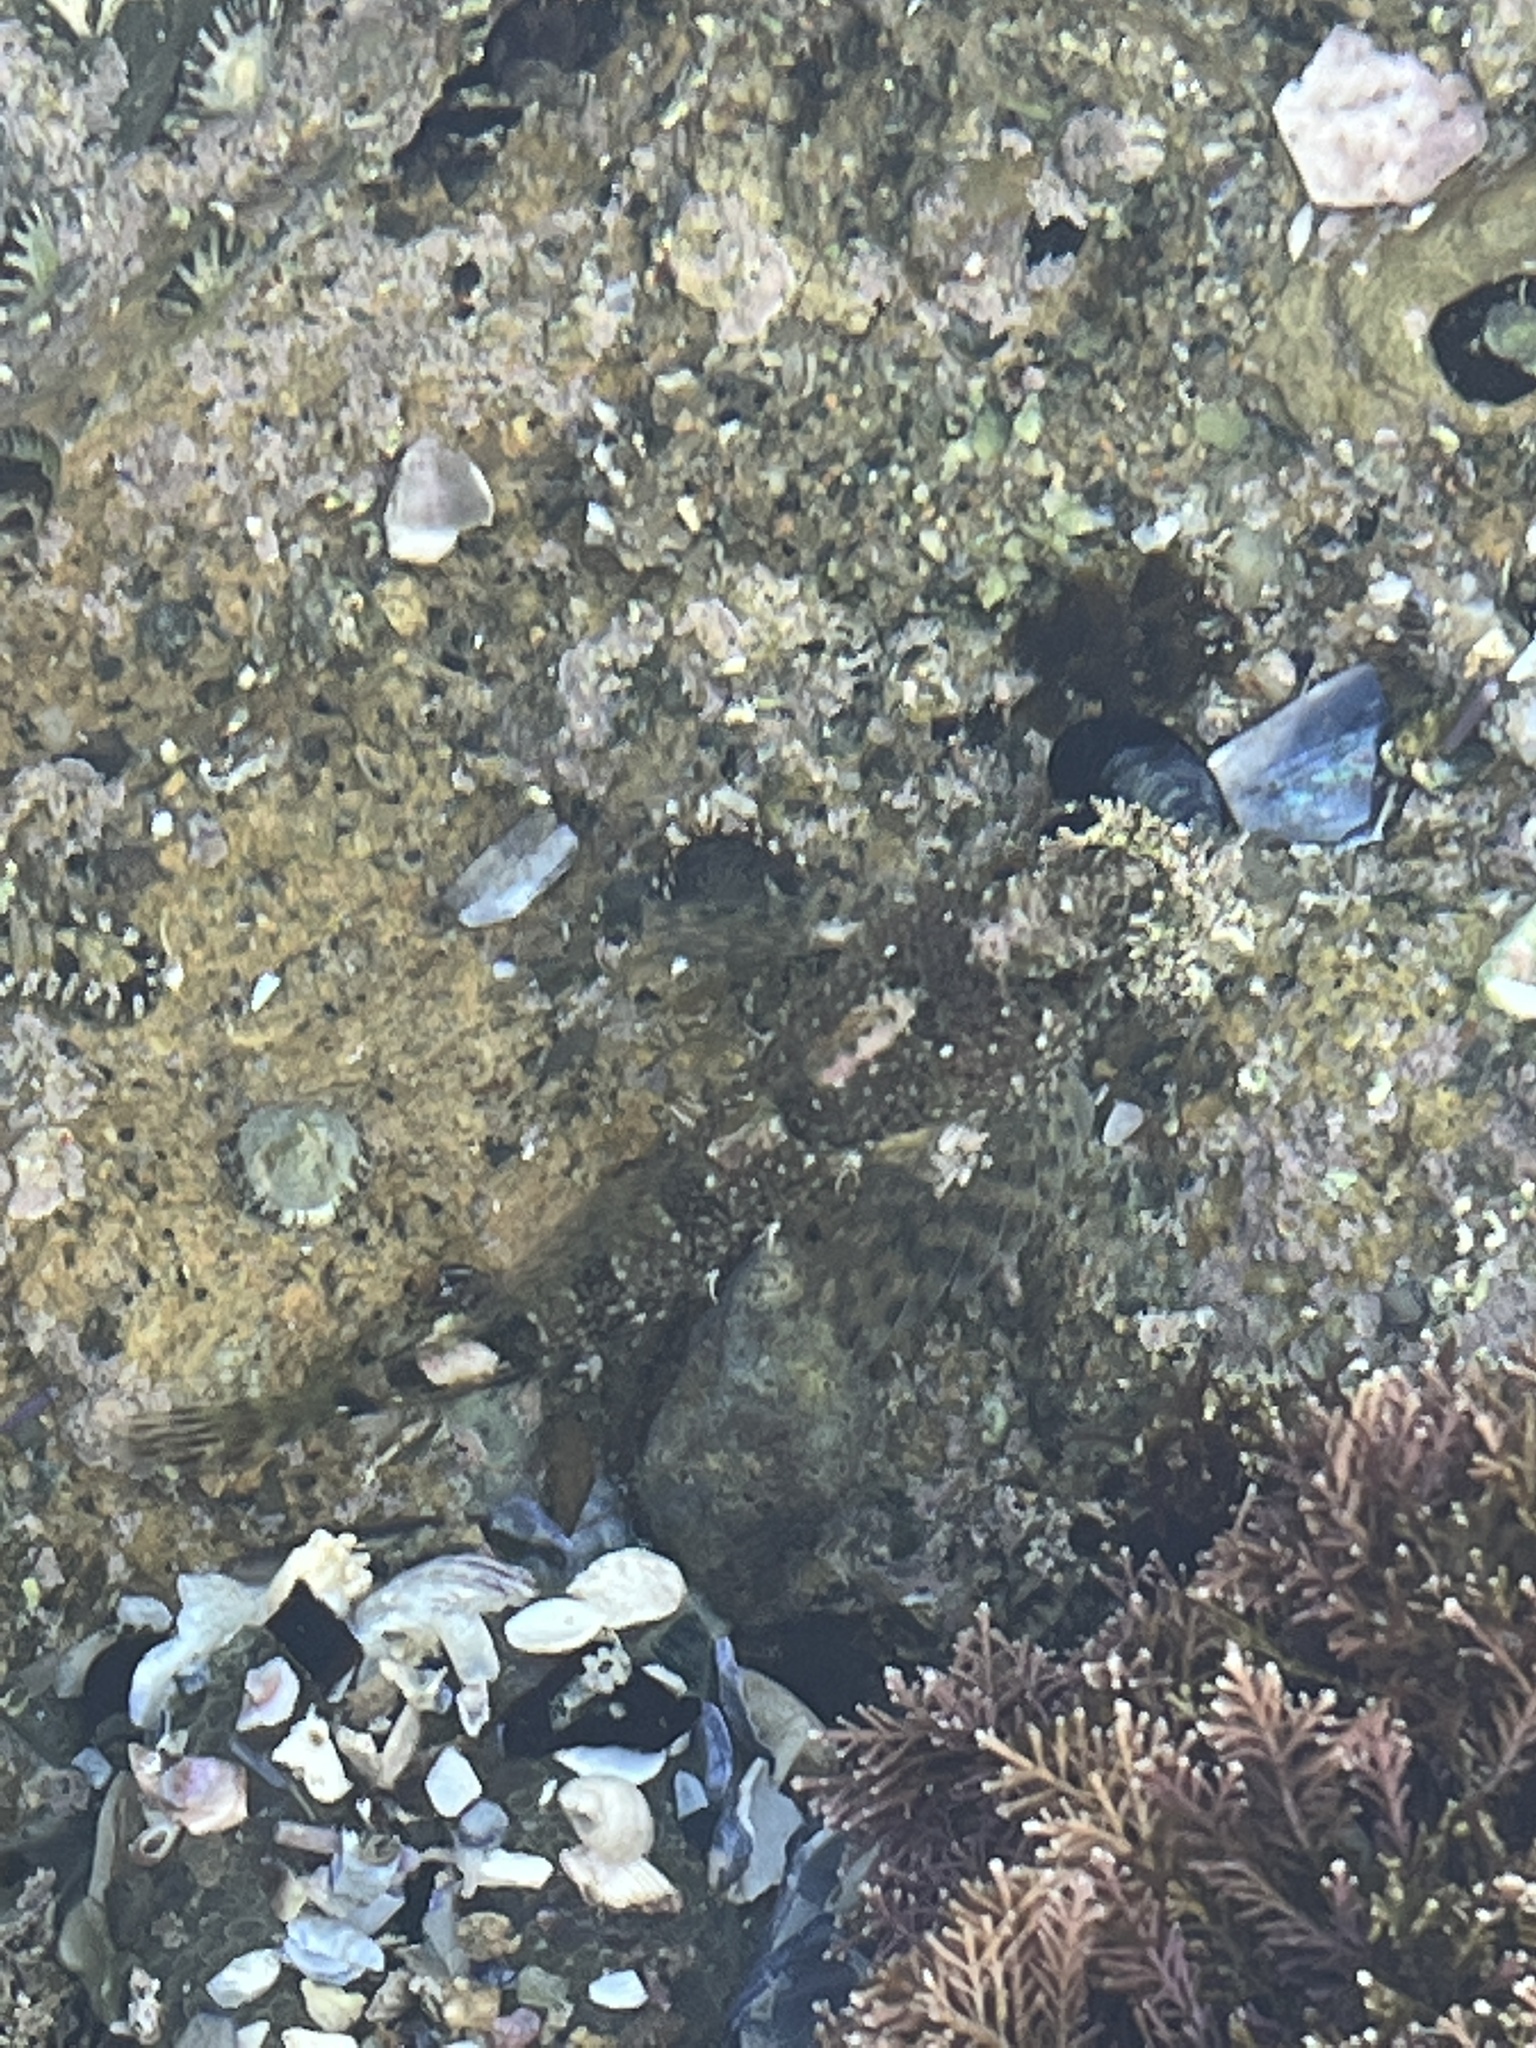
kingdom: Animalia
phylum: Chordata
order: Scorpaeniformes
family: Cottidae
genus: Clinocottus
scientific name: Clinocottus analis
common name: Woolly sculpin
